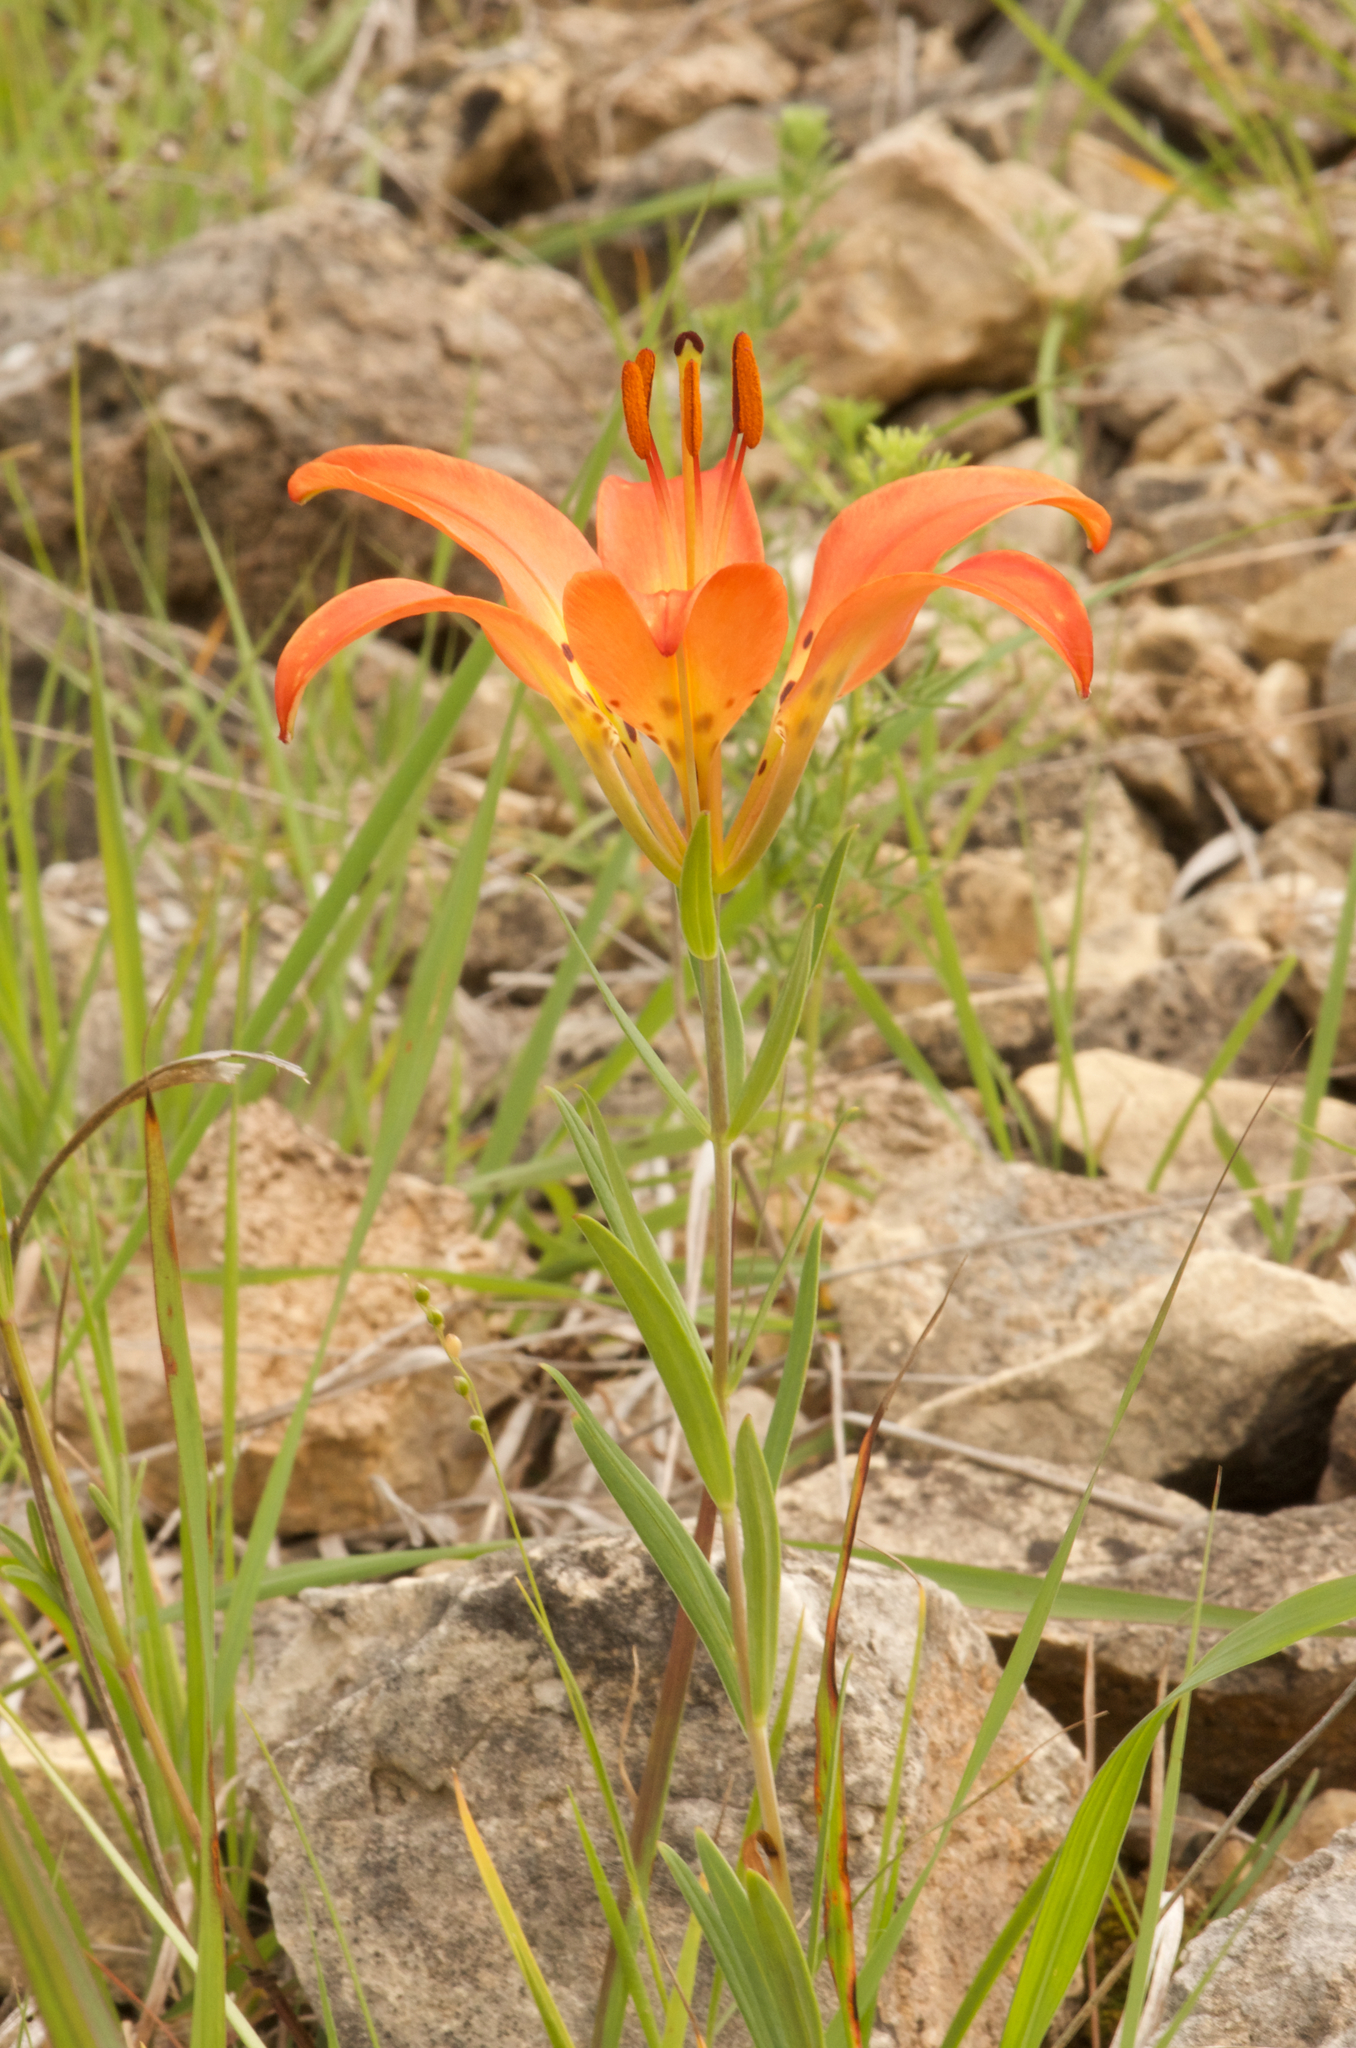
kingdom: Plantae
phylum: Tracheophyta
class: Liliopsida
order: Liliales
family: Liliaceae
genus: Lilium
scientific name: Lilium philadelphicum
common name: Red lily
